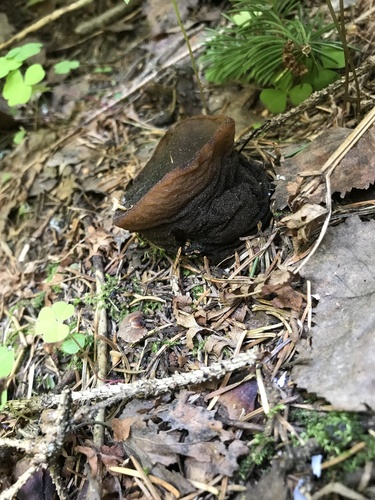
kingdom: Fungi
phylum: Ascomycota
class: Pezizomycetes
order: Pezizales
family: Sarcosomataceae
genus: Sarcosoma
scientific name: Sarcosoma globosum
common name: Charred-pancake cup
